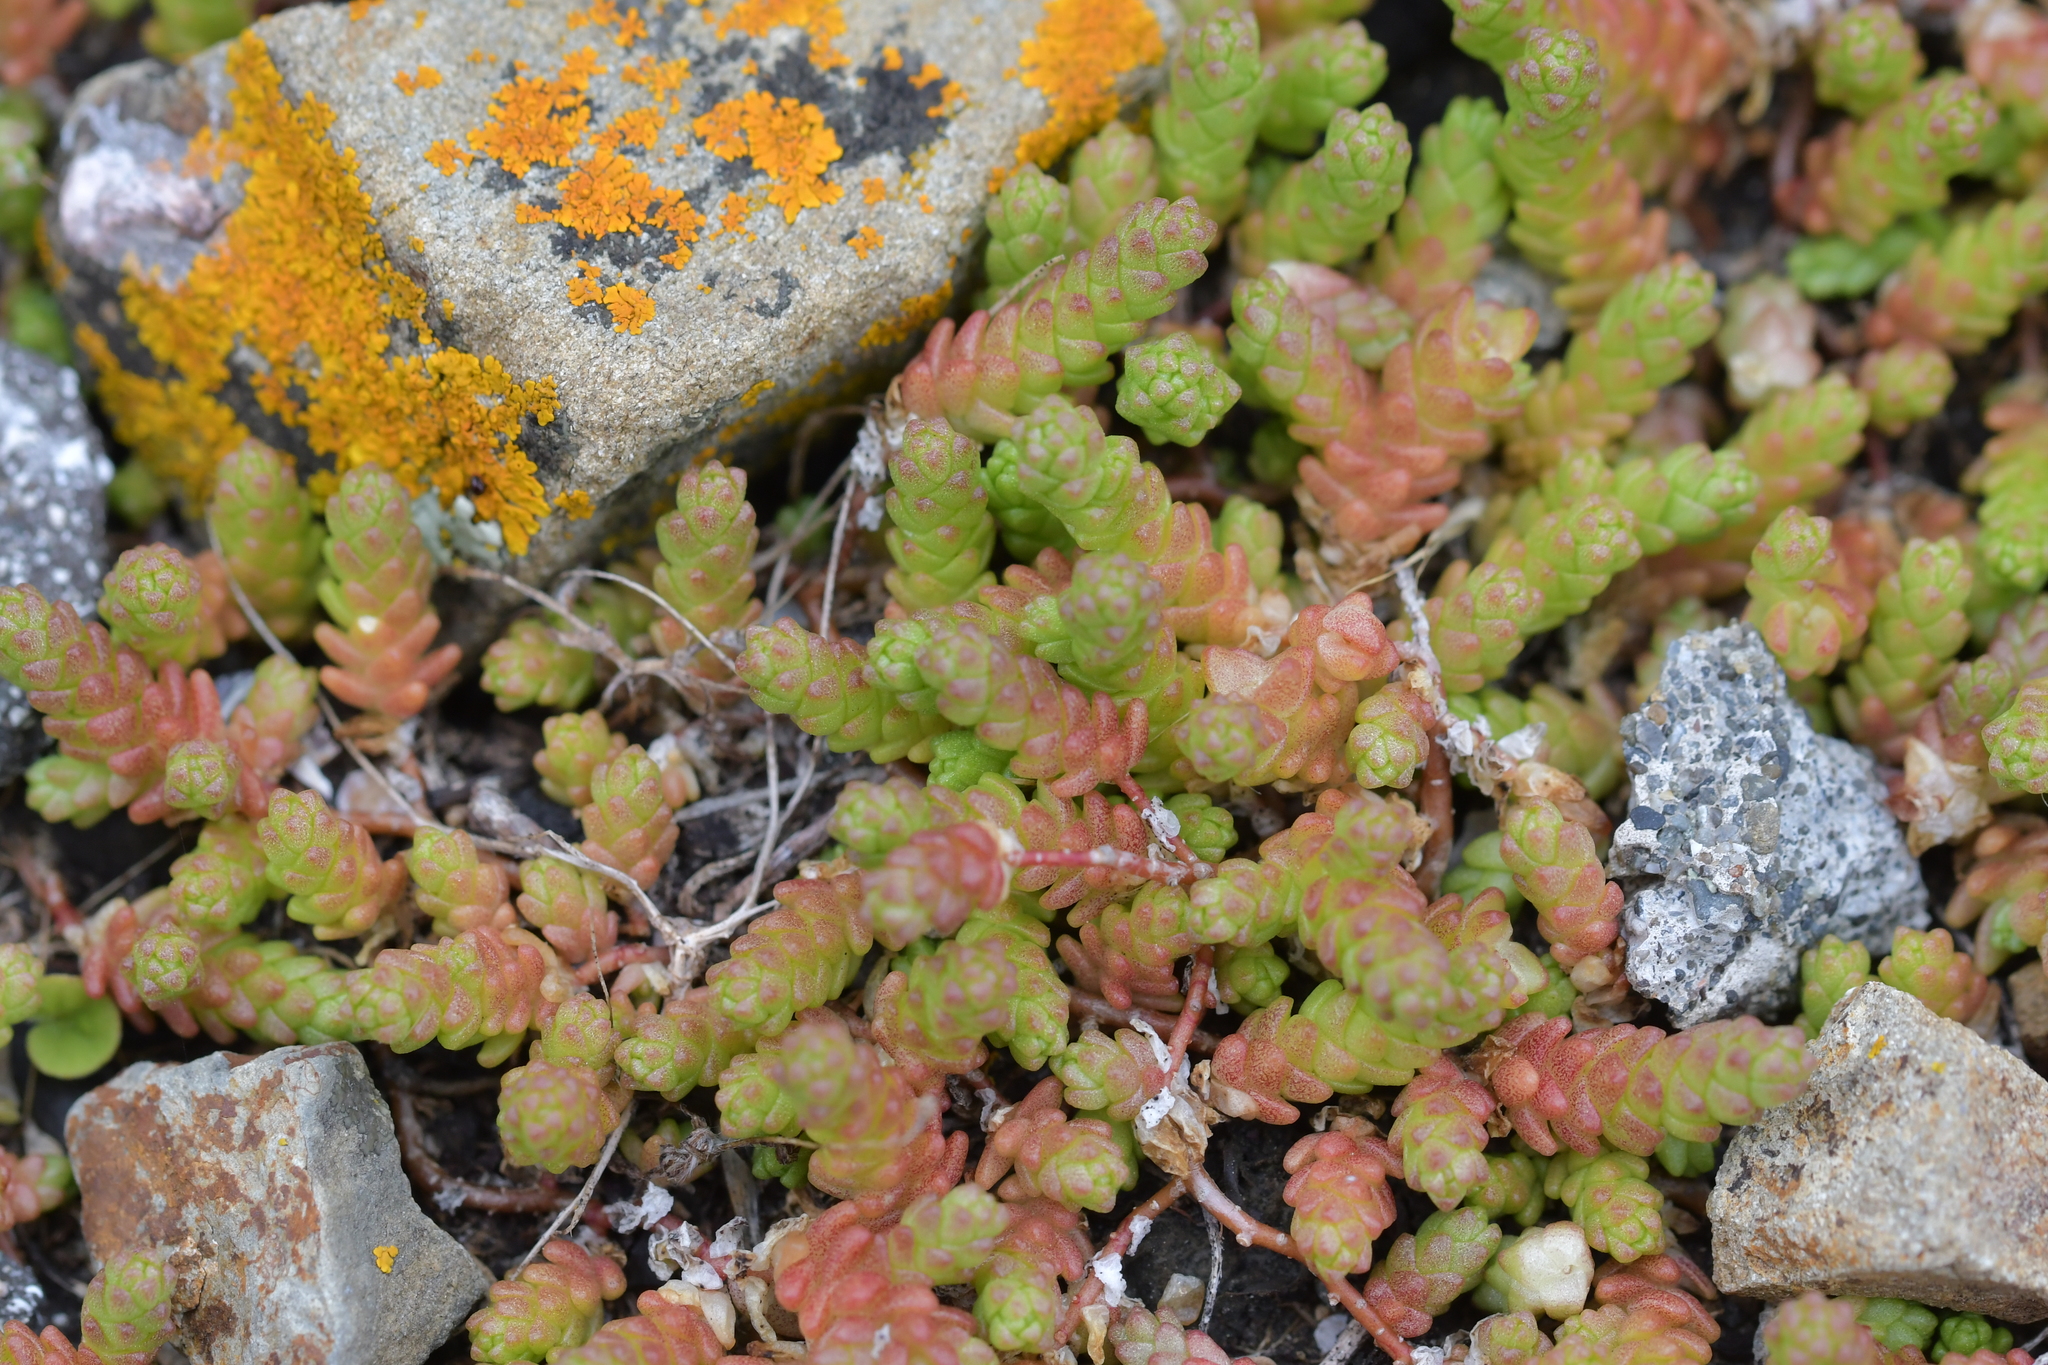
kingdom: Plantae
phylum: Tracheophyta
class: Magnoliopsida
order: Saxifragales
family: Crassulaceae
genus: Sedum
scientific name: Sedum acre
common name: Biting stonecrop
